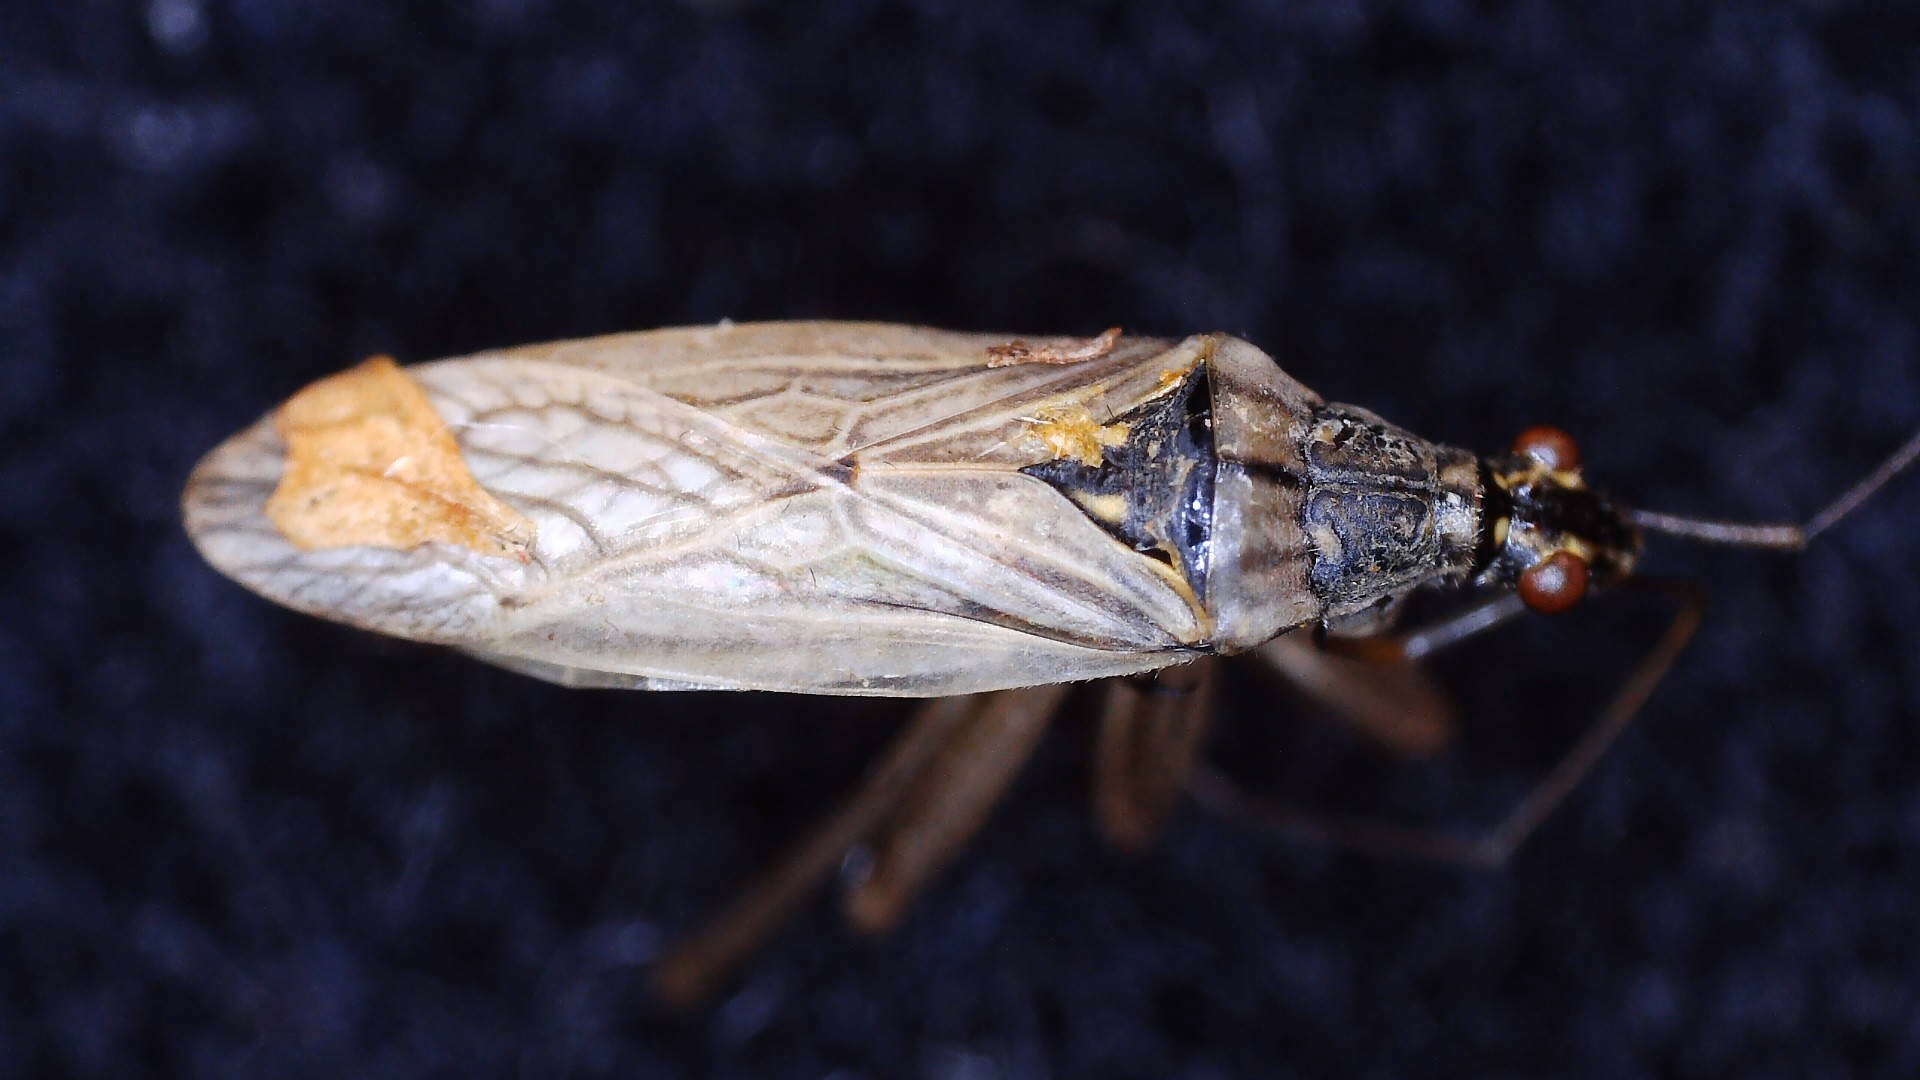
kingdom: Animalia
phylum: Arthropoda
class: Insecta
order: Hemiptera
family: Nabidae
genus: Nabis
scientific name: Nabis flavomarginatus
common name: Broad damselbug
